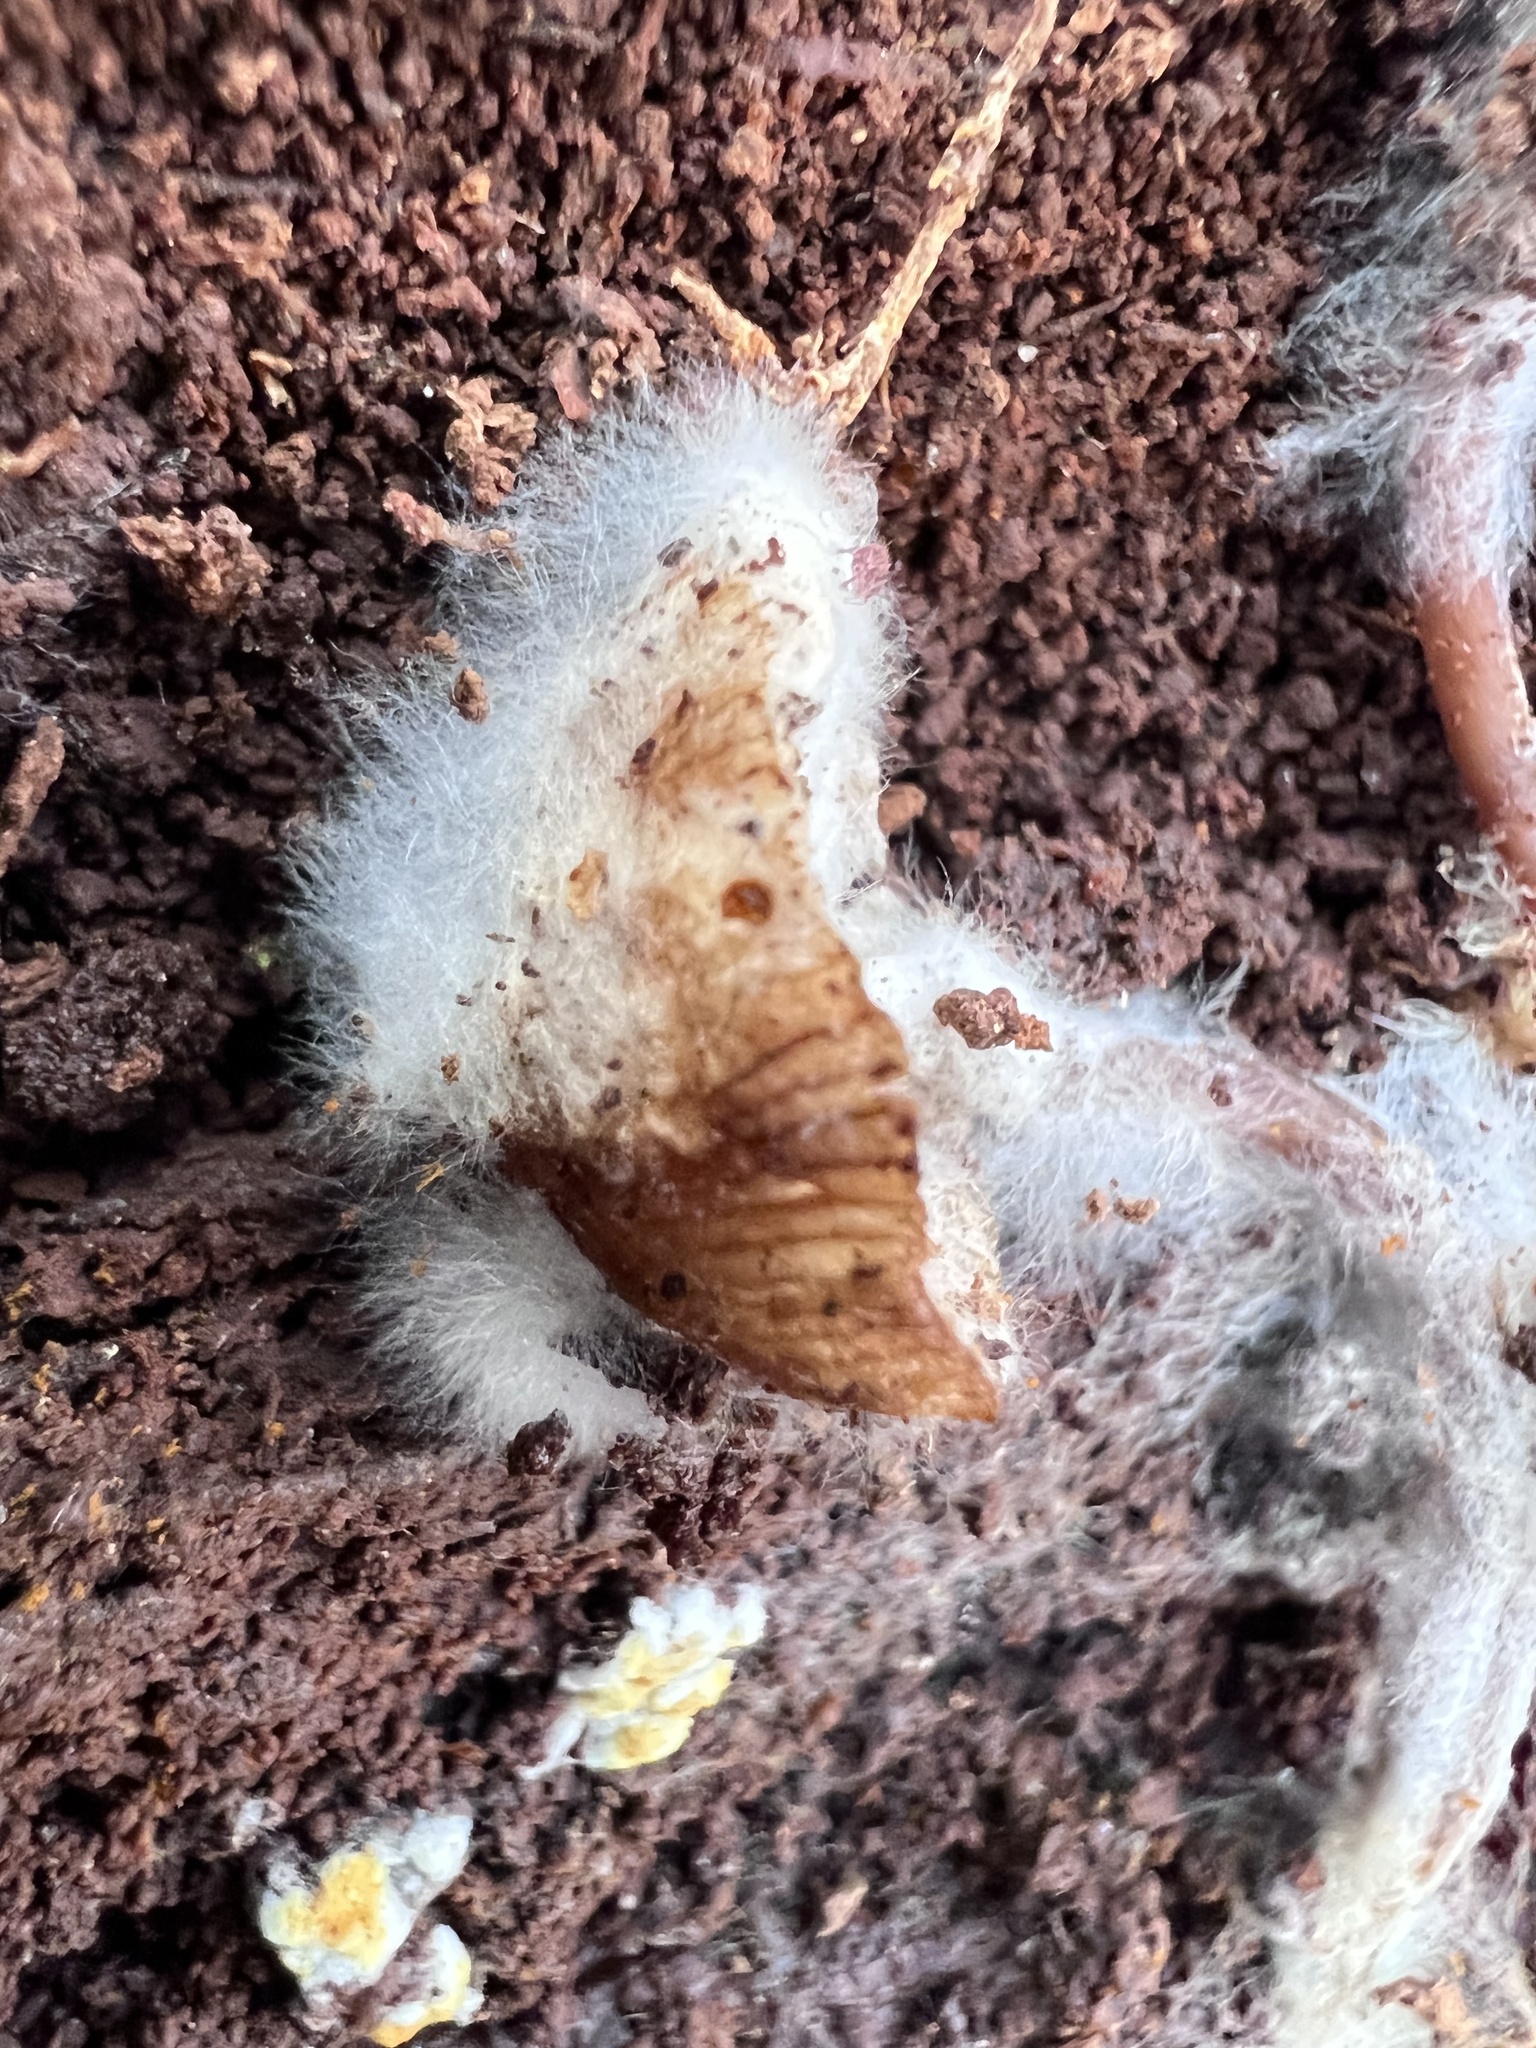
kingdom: Fungi
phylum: Mucoromycota
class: Mucoromycetes
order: Mucorales
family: Rhizopodaceae
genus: Syzygites
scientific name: Syzygites megalocarpus
